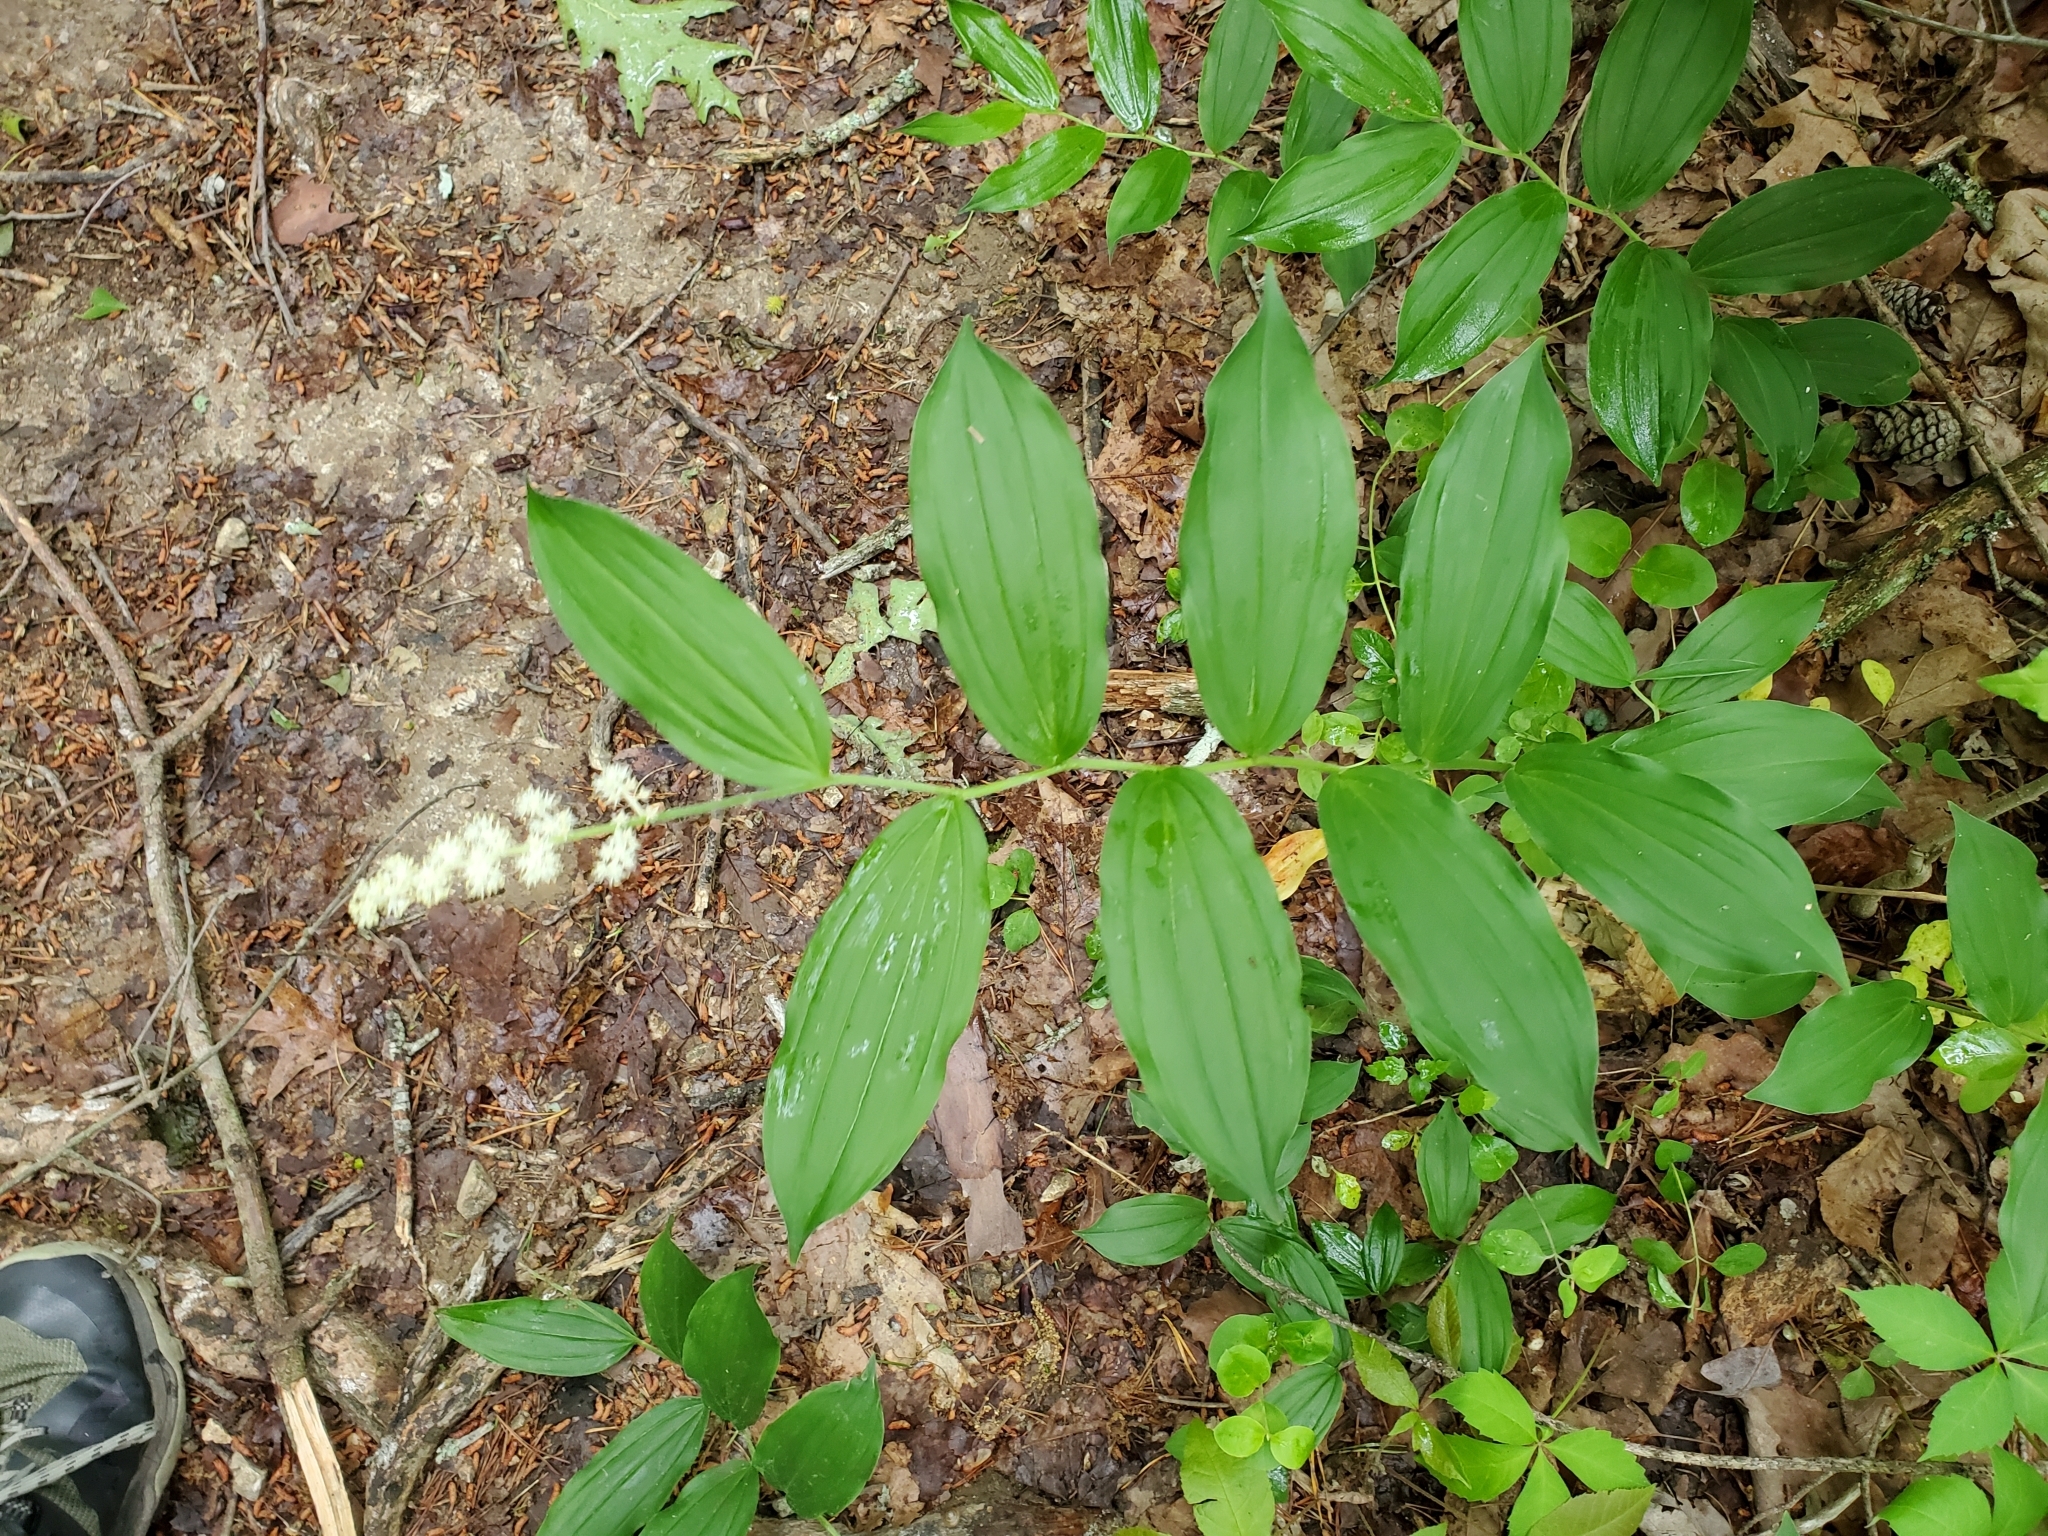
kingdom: Plantae
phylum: Tracheophyta
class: Liliopsida
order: Asparagales
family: Asparagaceae
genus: Maianthemum
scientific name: Maianthemum racemosum
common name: False spikenard
